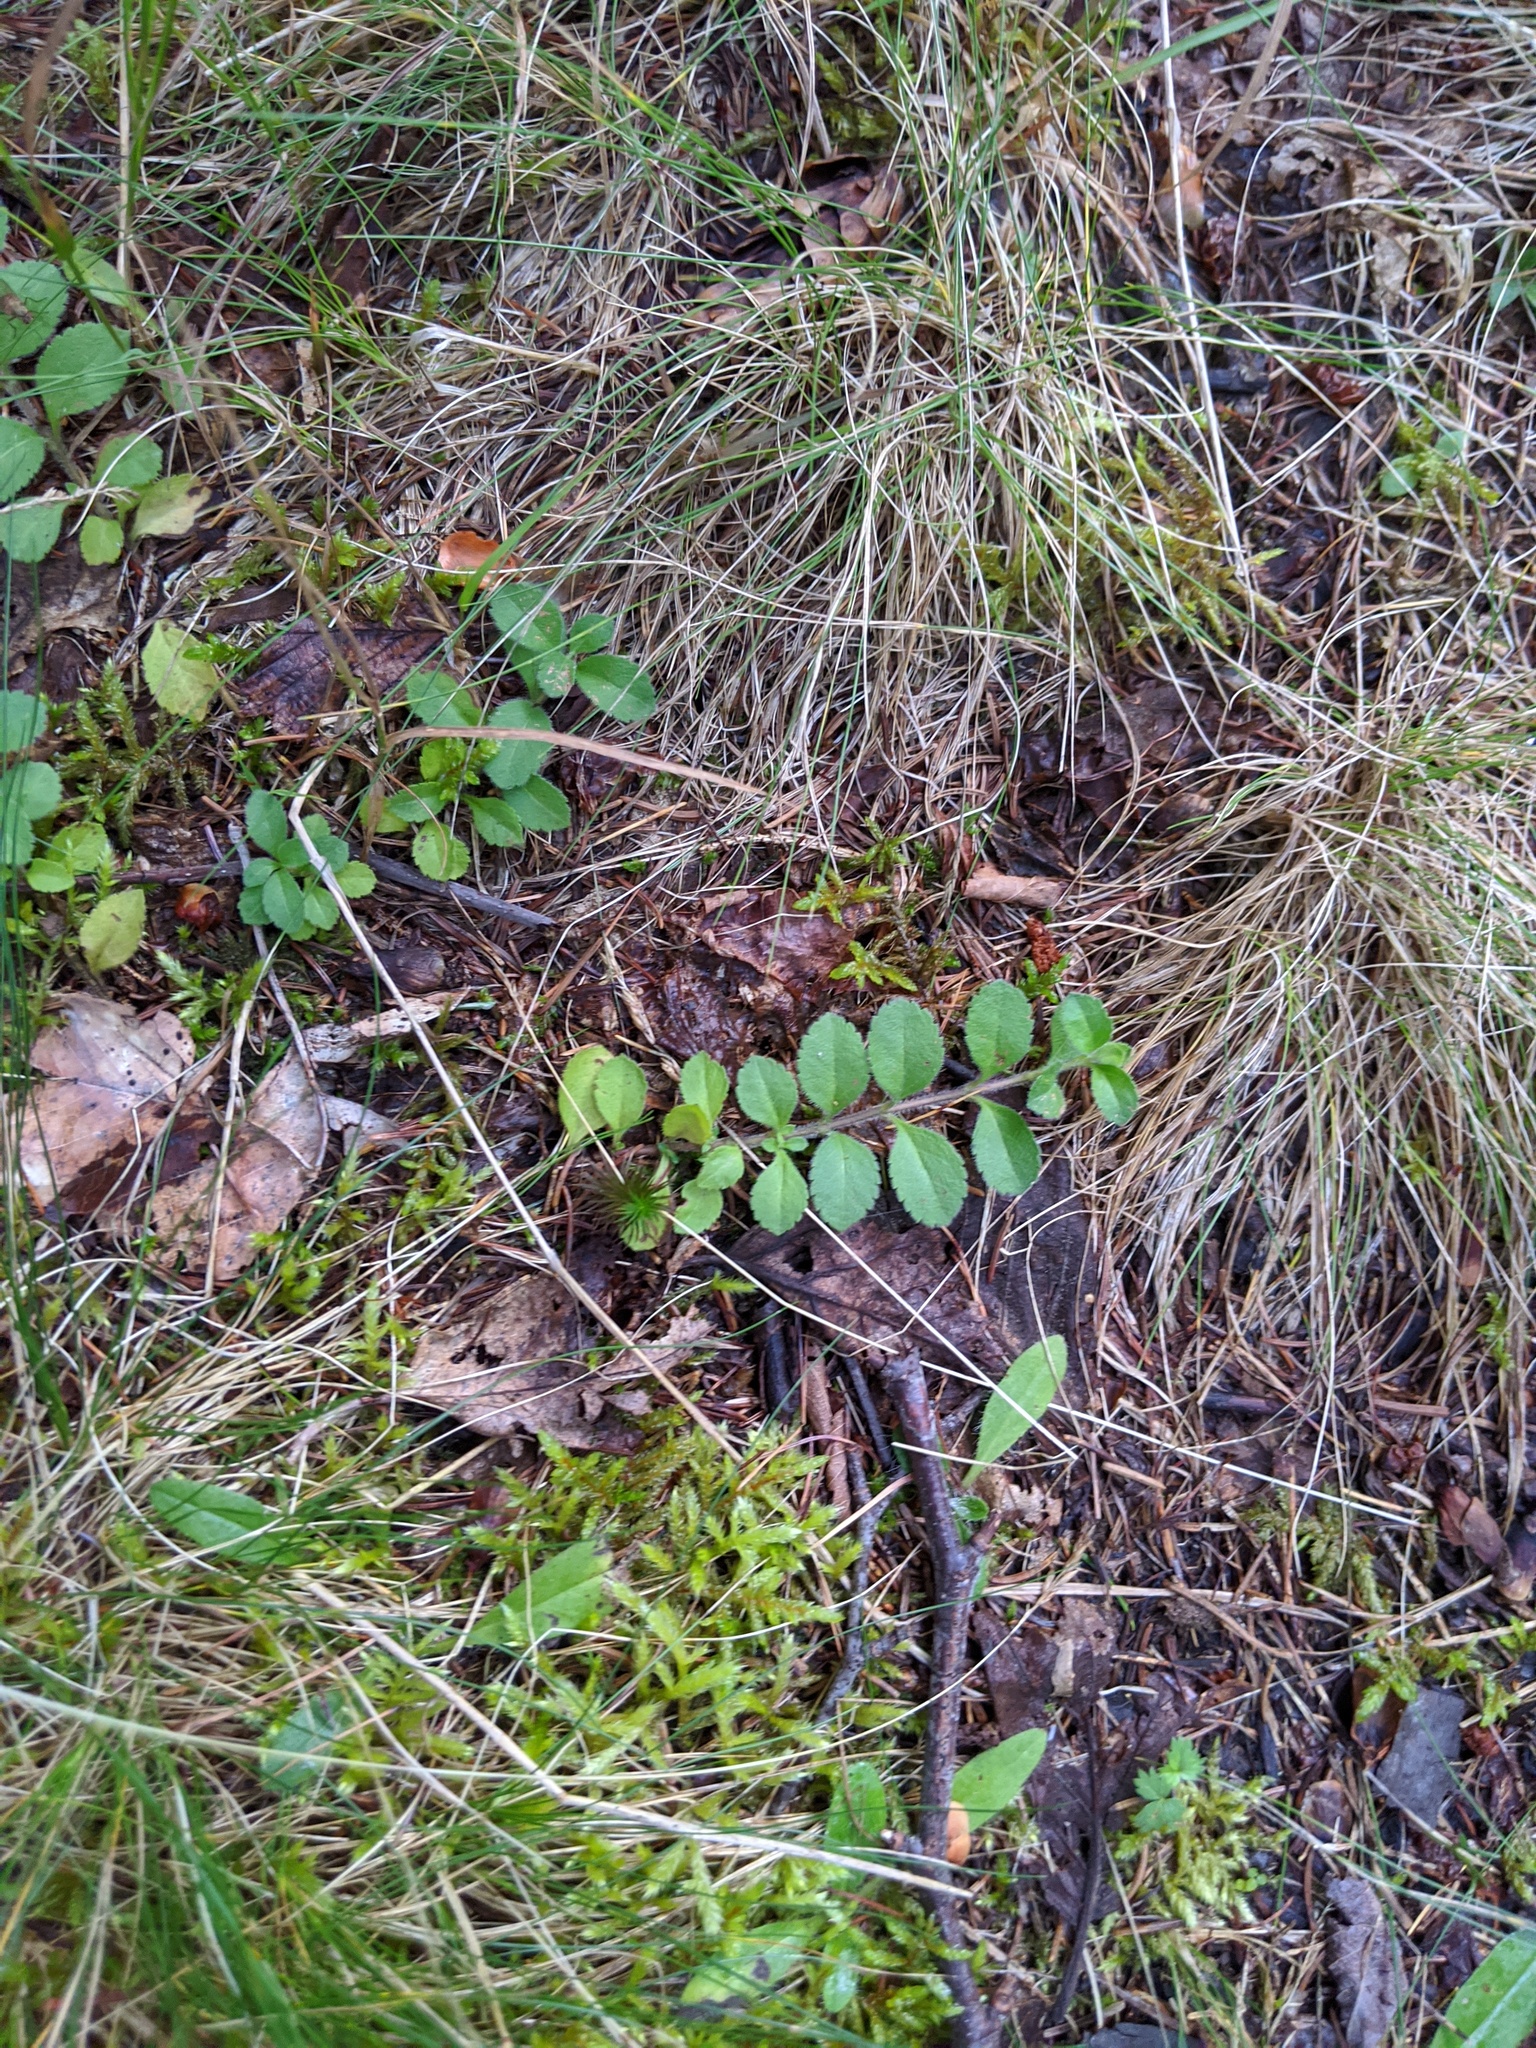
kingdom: Plantae
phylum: Tracheophyta
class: Magnoliopsida
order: Lamiales
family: Plantaginaceae
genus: Veronica
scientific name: Veronica officinalis
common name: Common speedwell
